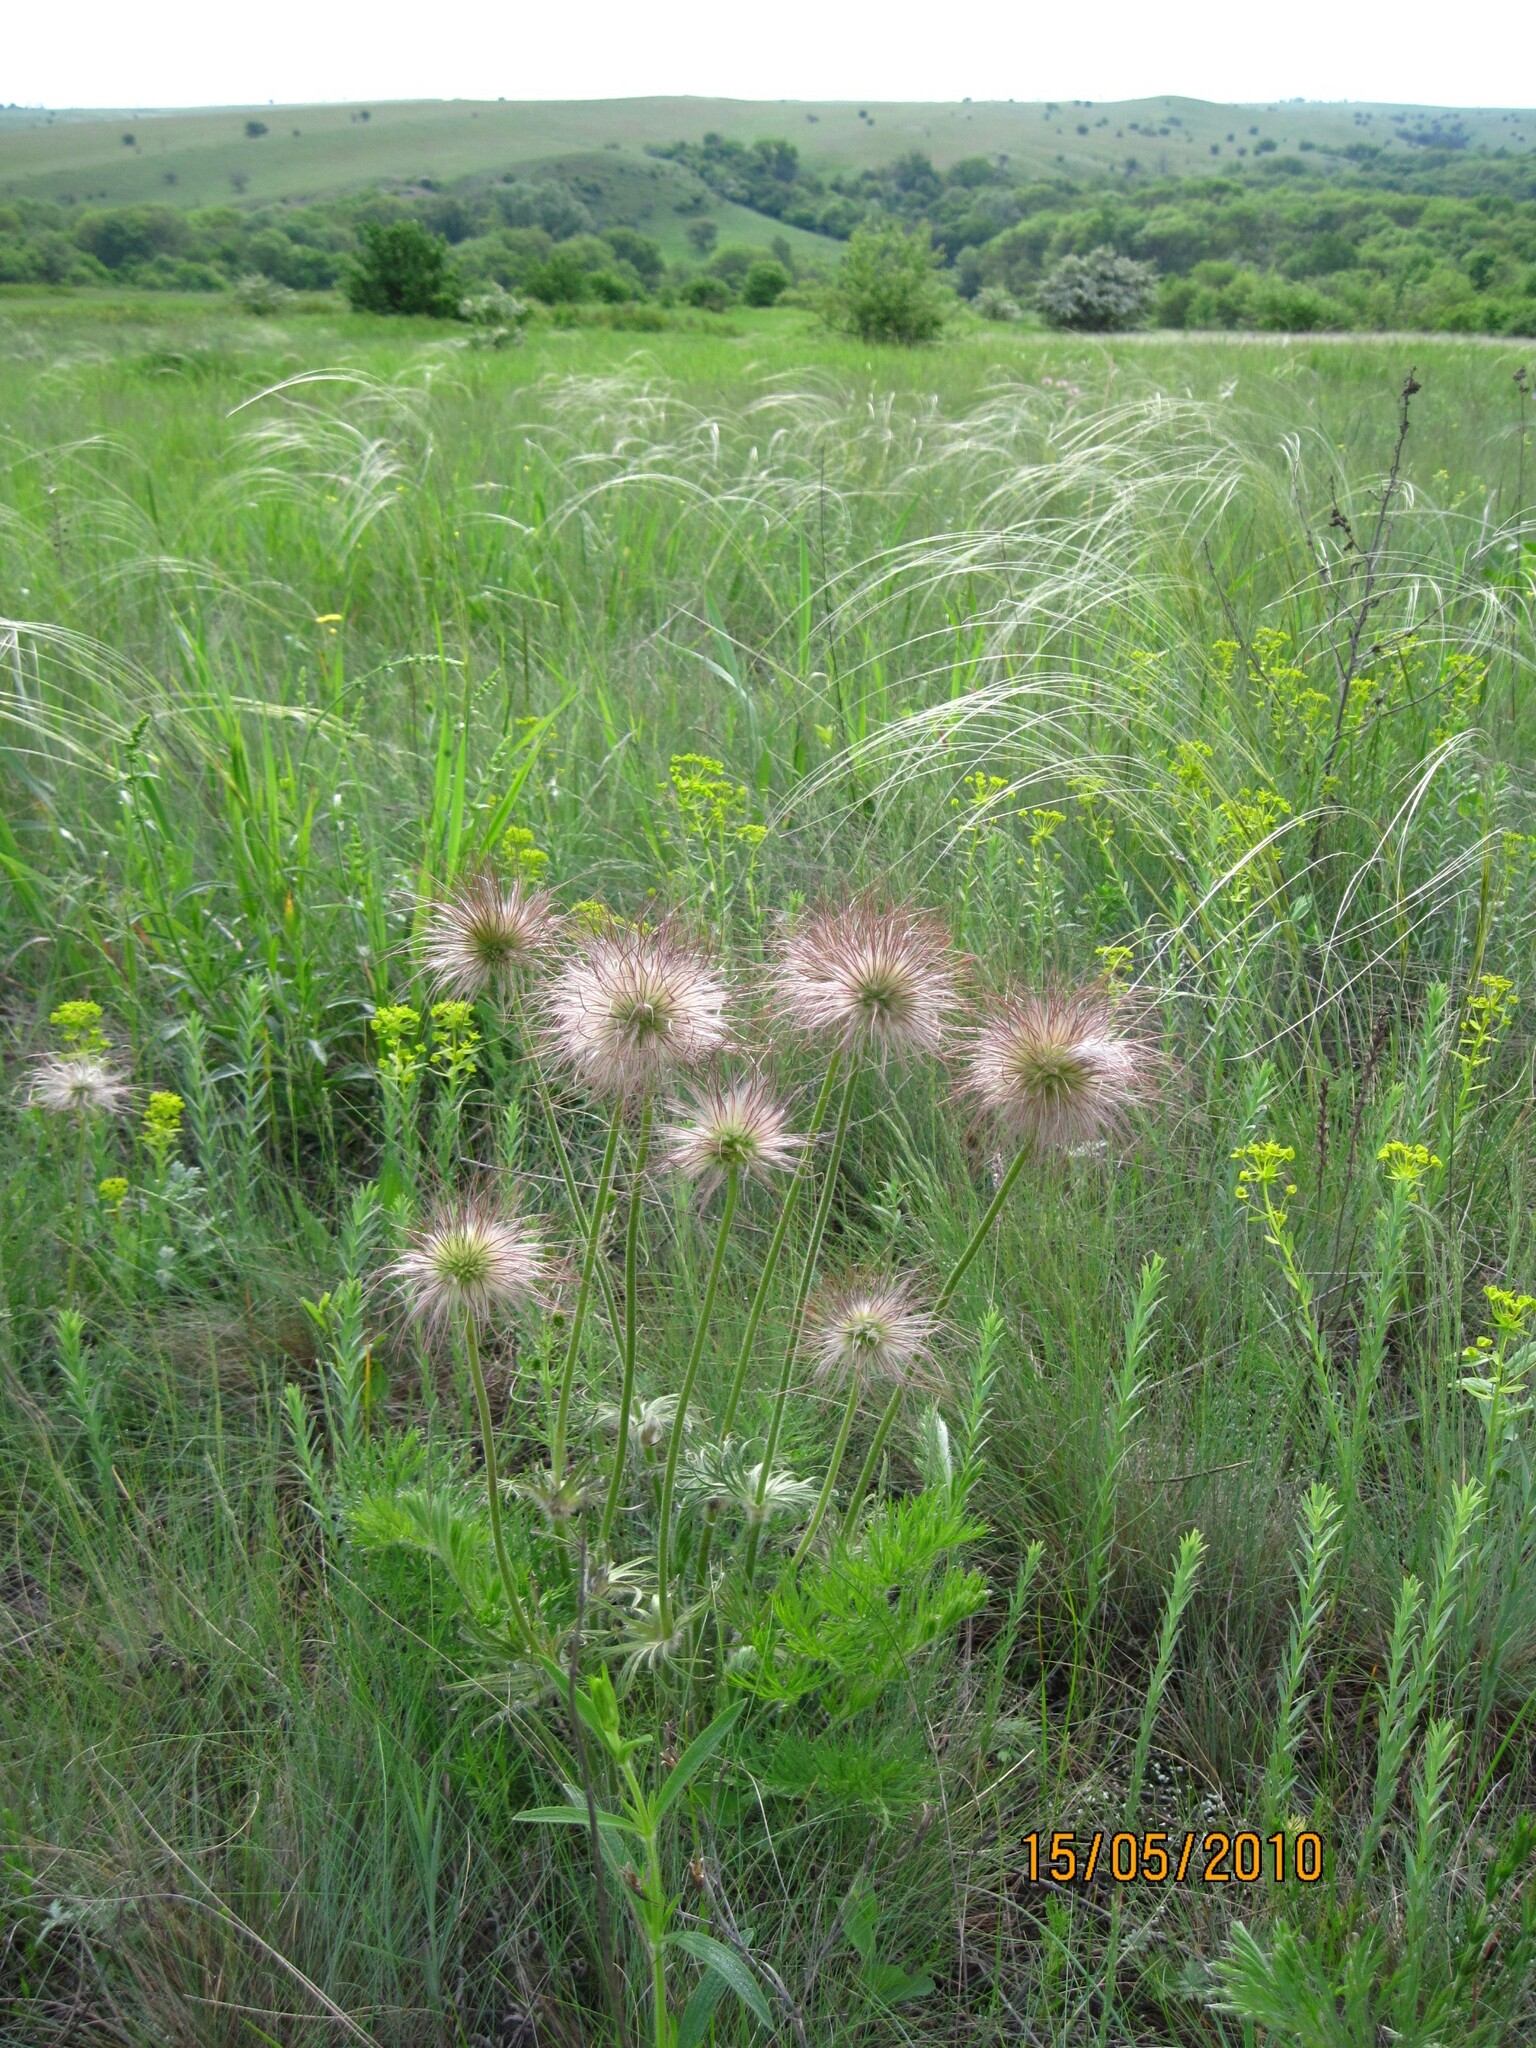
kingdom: Plantae
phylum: Tracheophyta
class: Magnoliopsida
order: Ranunculales
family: Ranunculaceae
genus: Pulsatilla
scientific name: Pulsatilla pratensis
